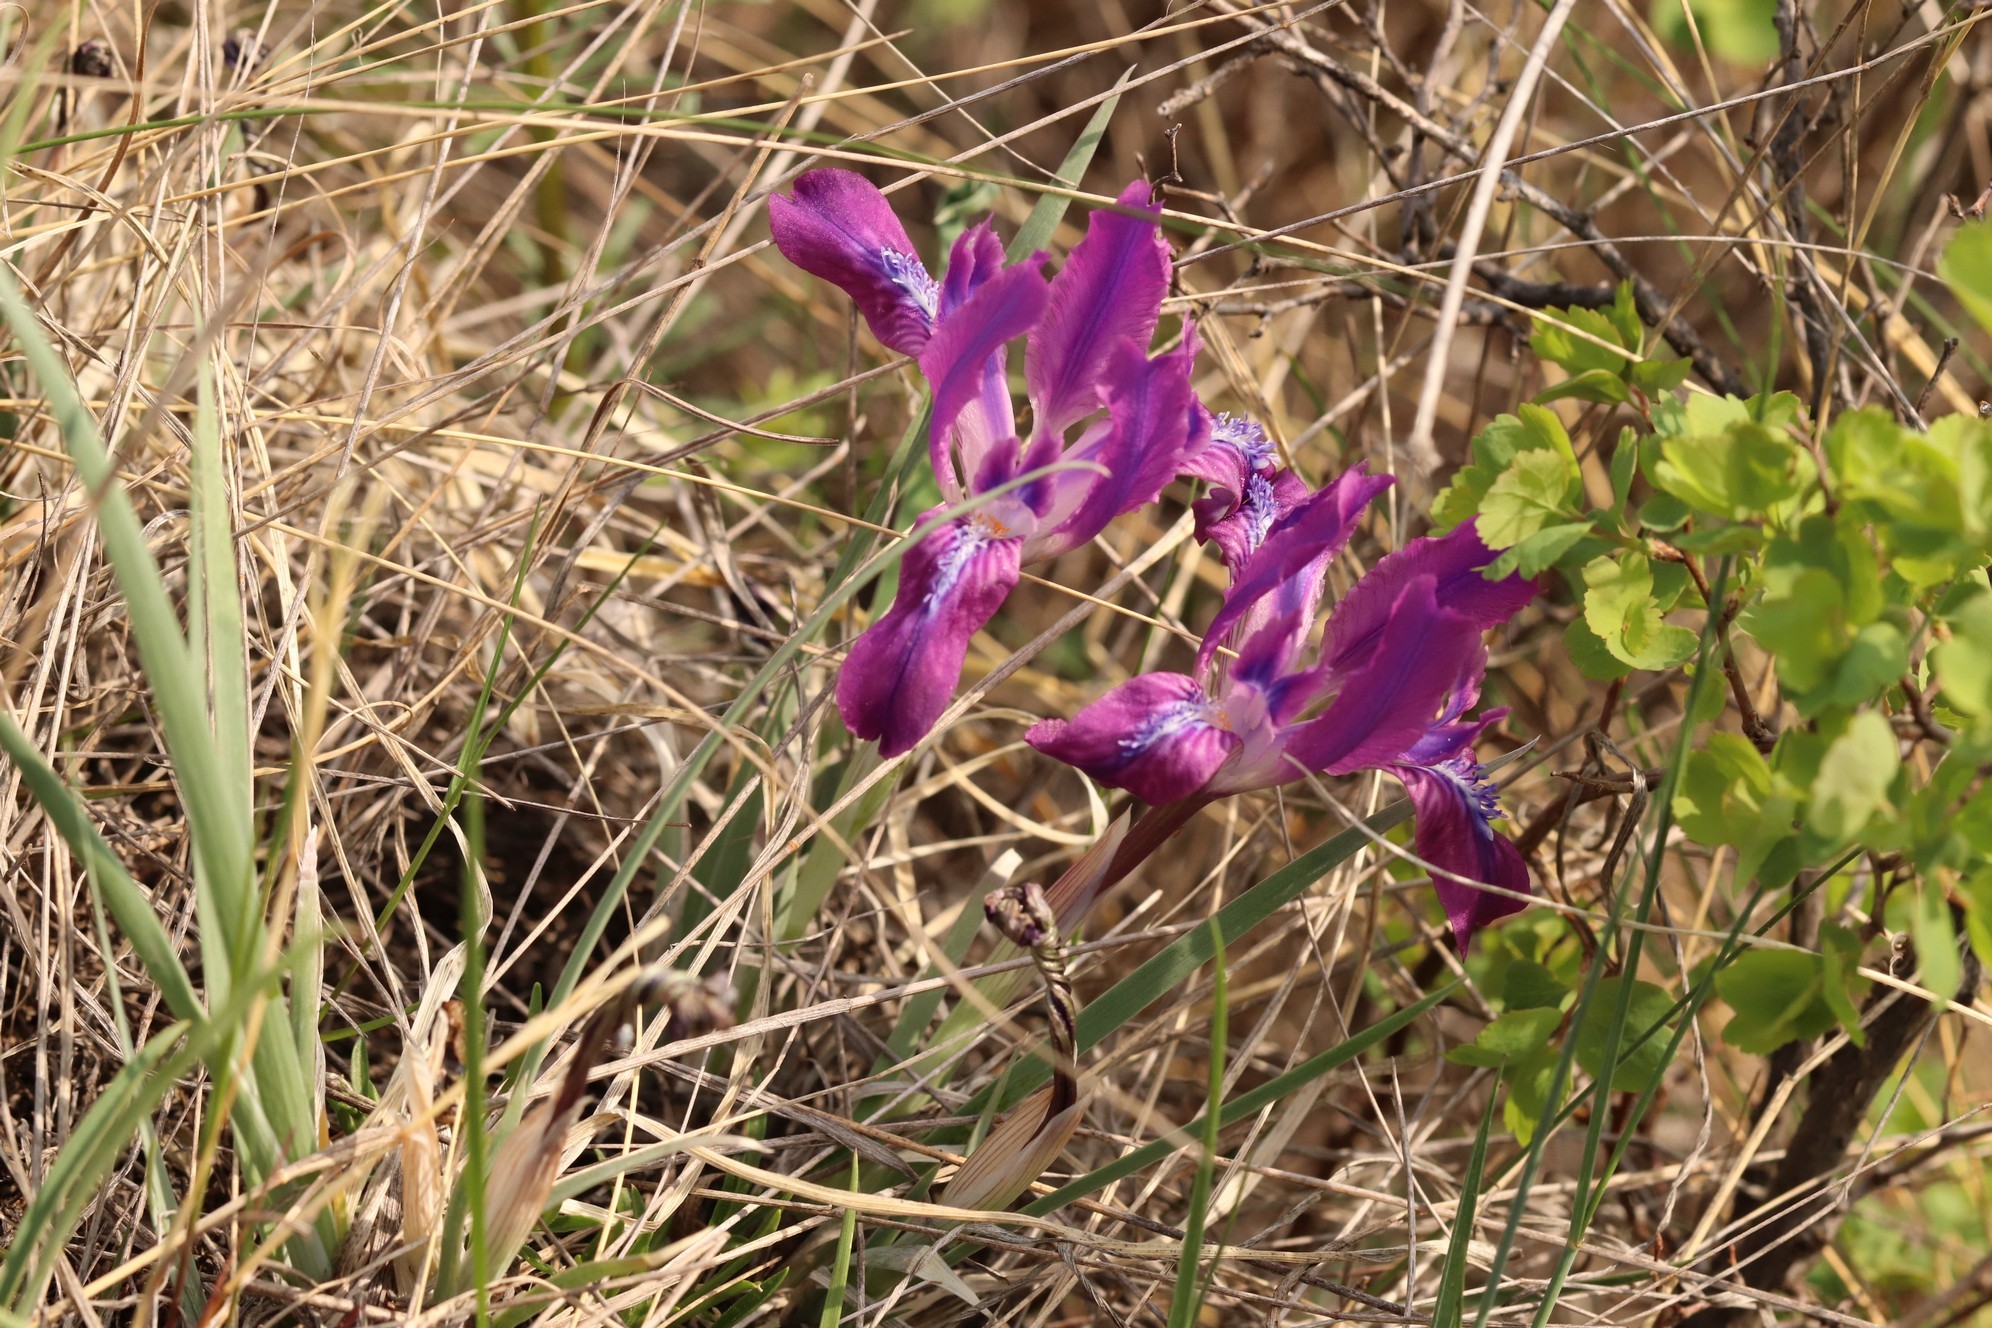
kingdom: Plantae
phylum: Tracheophyta
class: Liliopsida
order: Asparagales
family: Iridaceae
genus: Iris
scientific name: Iris tigridia
